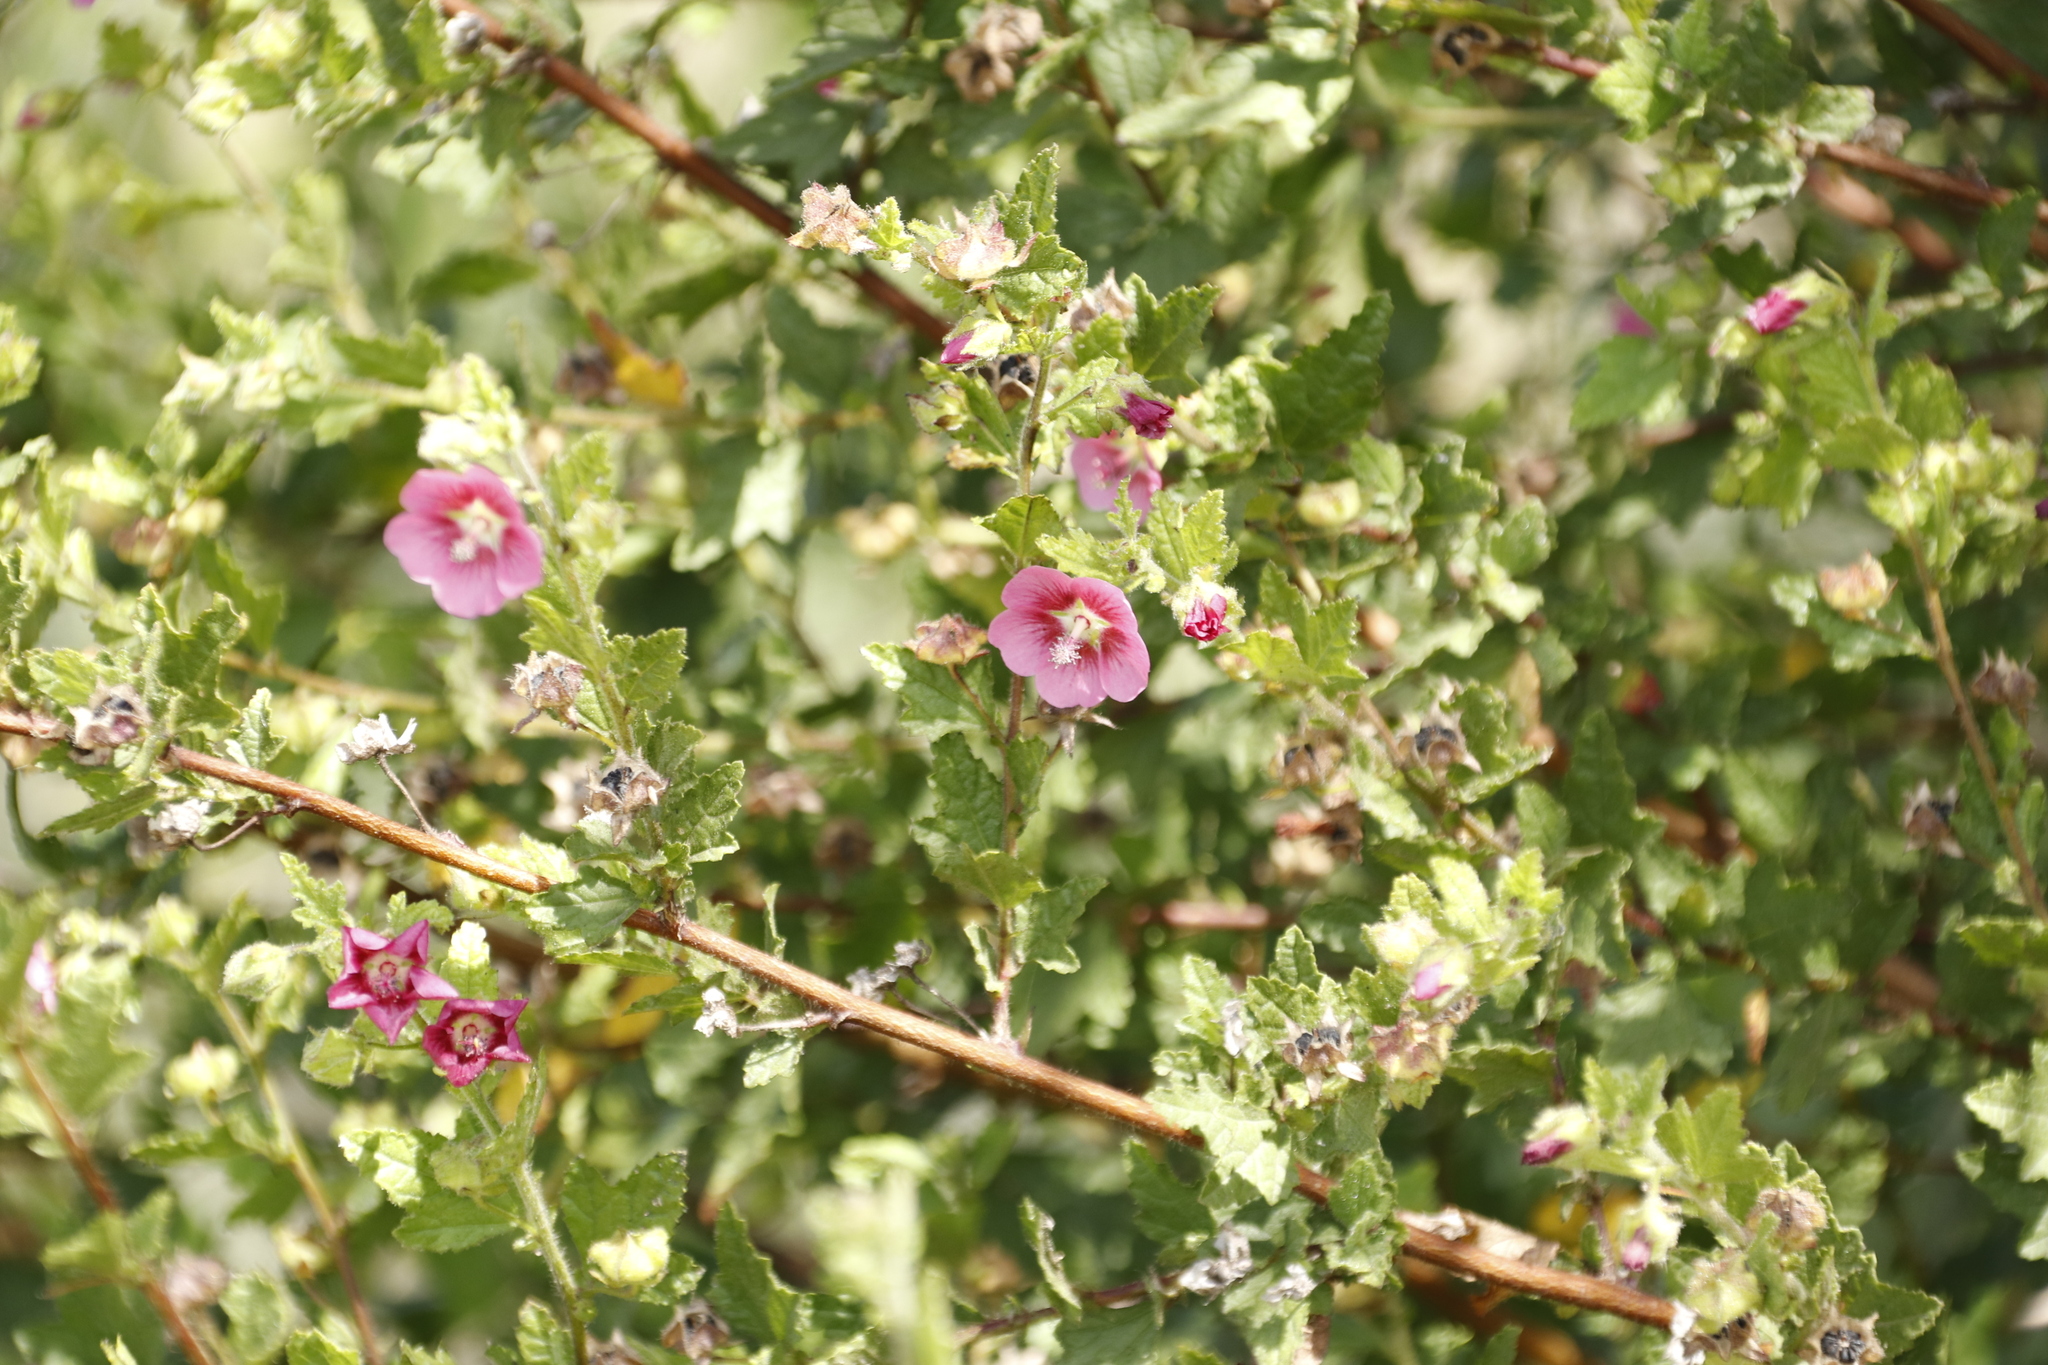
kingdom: Plantae
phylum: Tracheophyta
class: Magnoliopsida
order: Malvales
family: Malvaceae
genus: Anisodontea
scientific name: Anisodontea scabrosa
